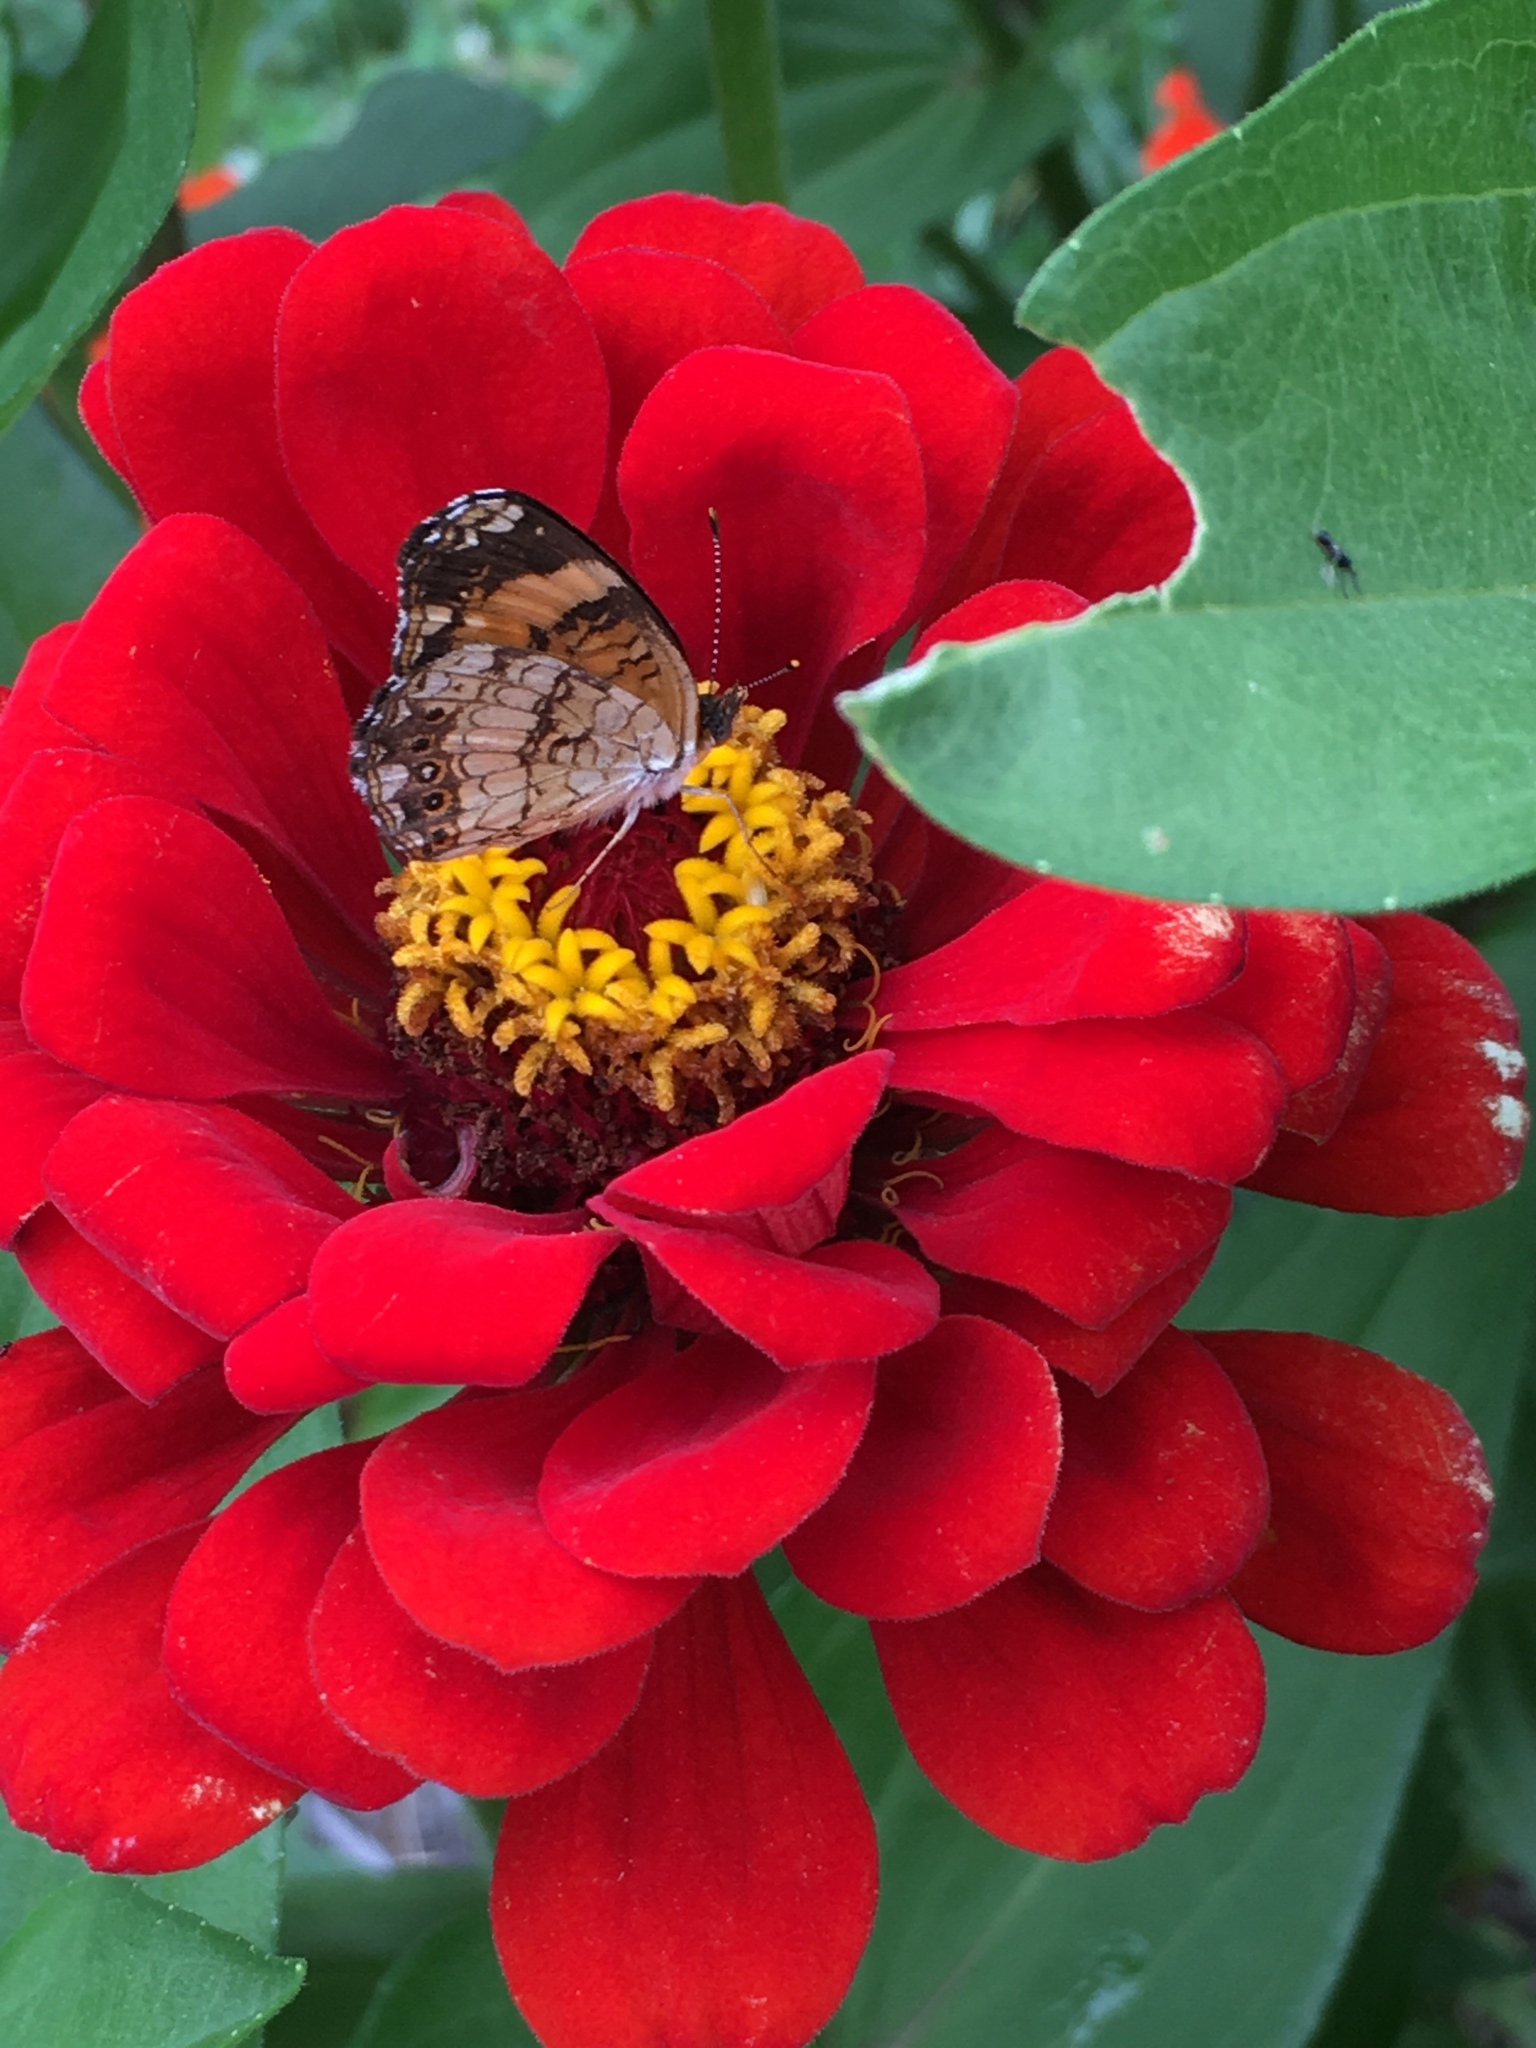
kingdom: Animalia
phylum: Arthropoda
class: Insecta
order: Lepidoptera
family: Nymphalidae
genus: Chlosyne
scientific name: Chlosyne nycteis
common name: Silvery checkerspot
